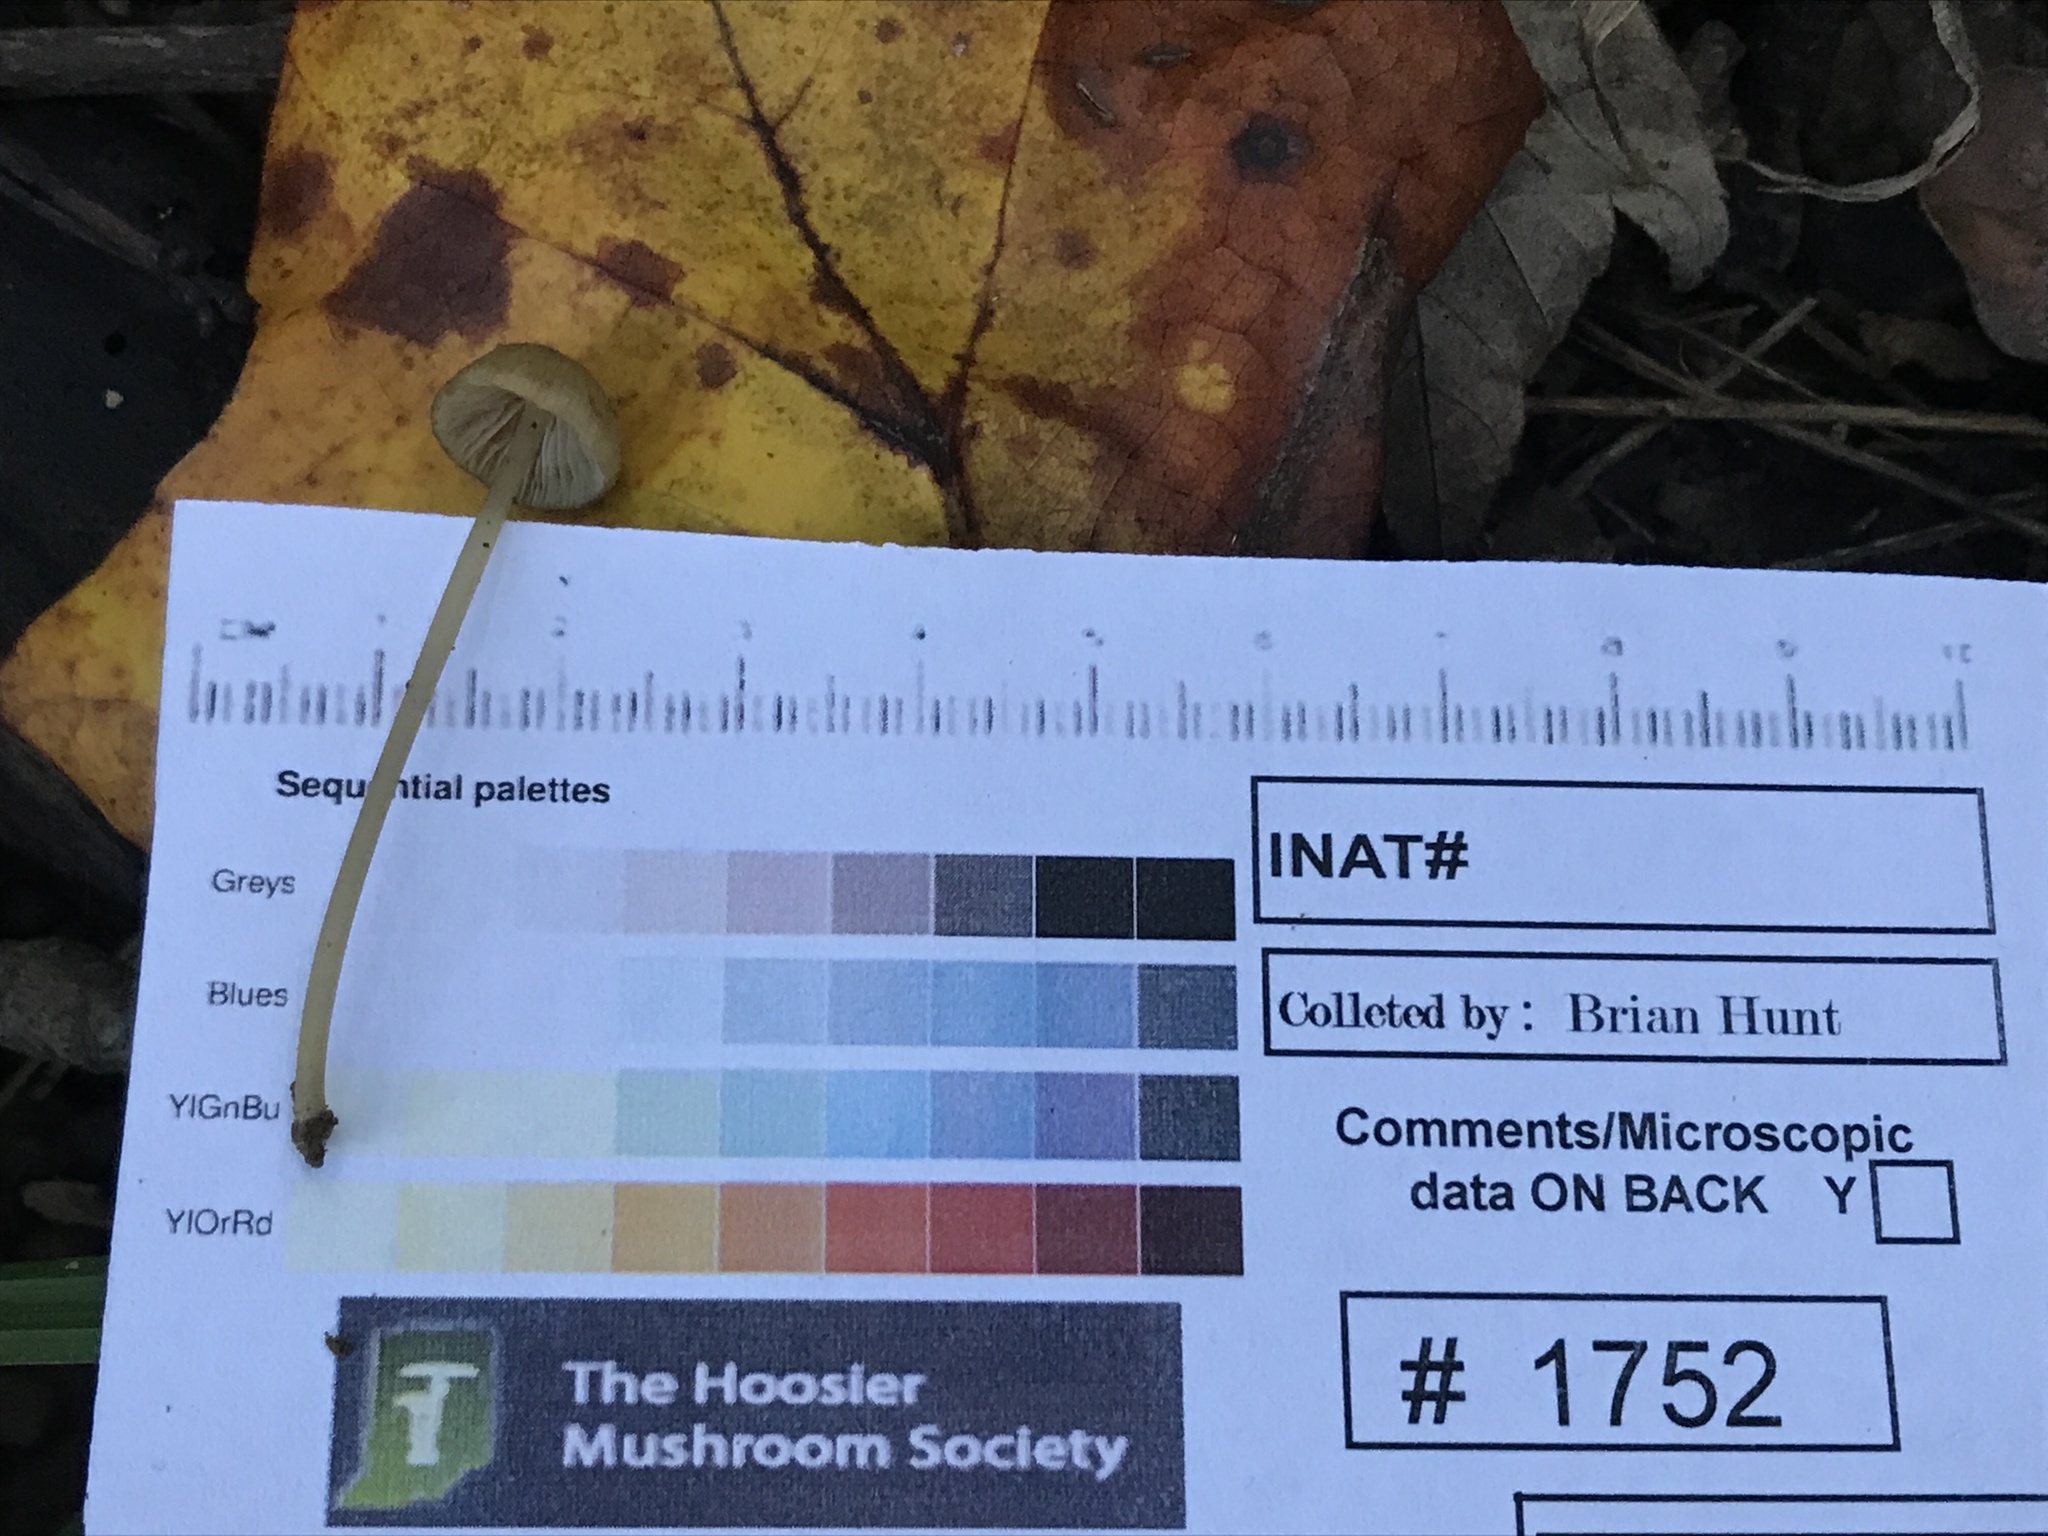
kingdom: Fungi
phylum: Basidiomycota
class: Agaricomycetes
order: Agaricales
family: Entolomataceae
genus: Entoloma
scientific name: Entoloma olivaceomarginatum
